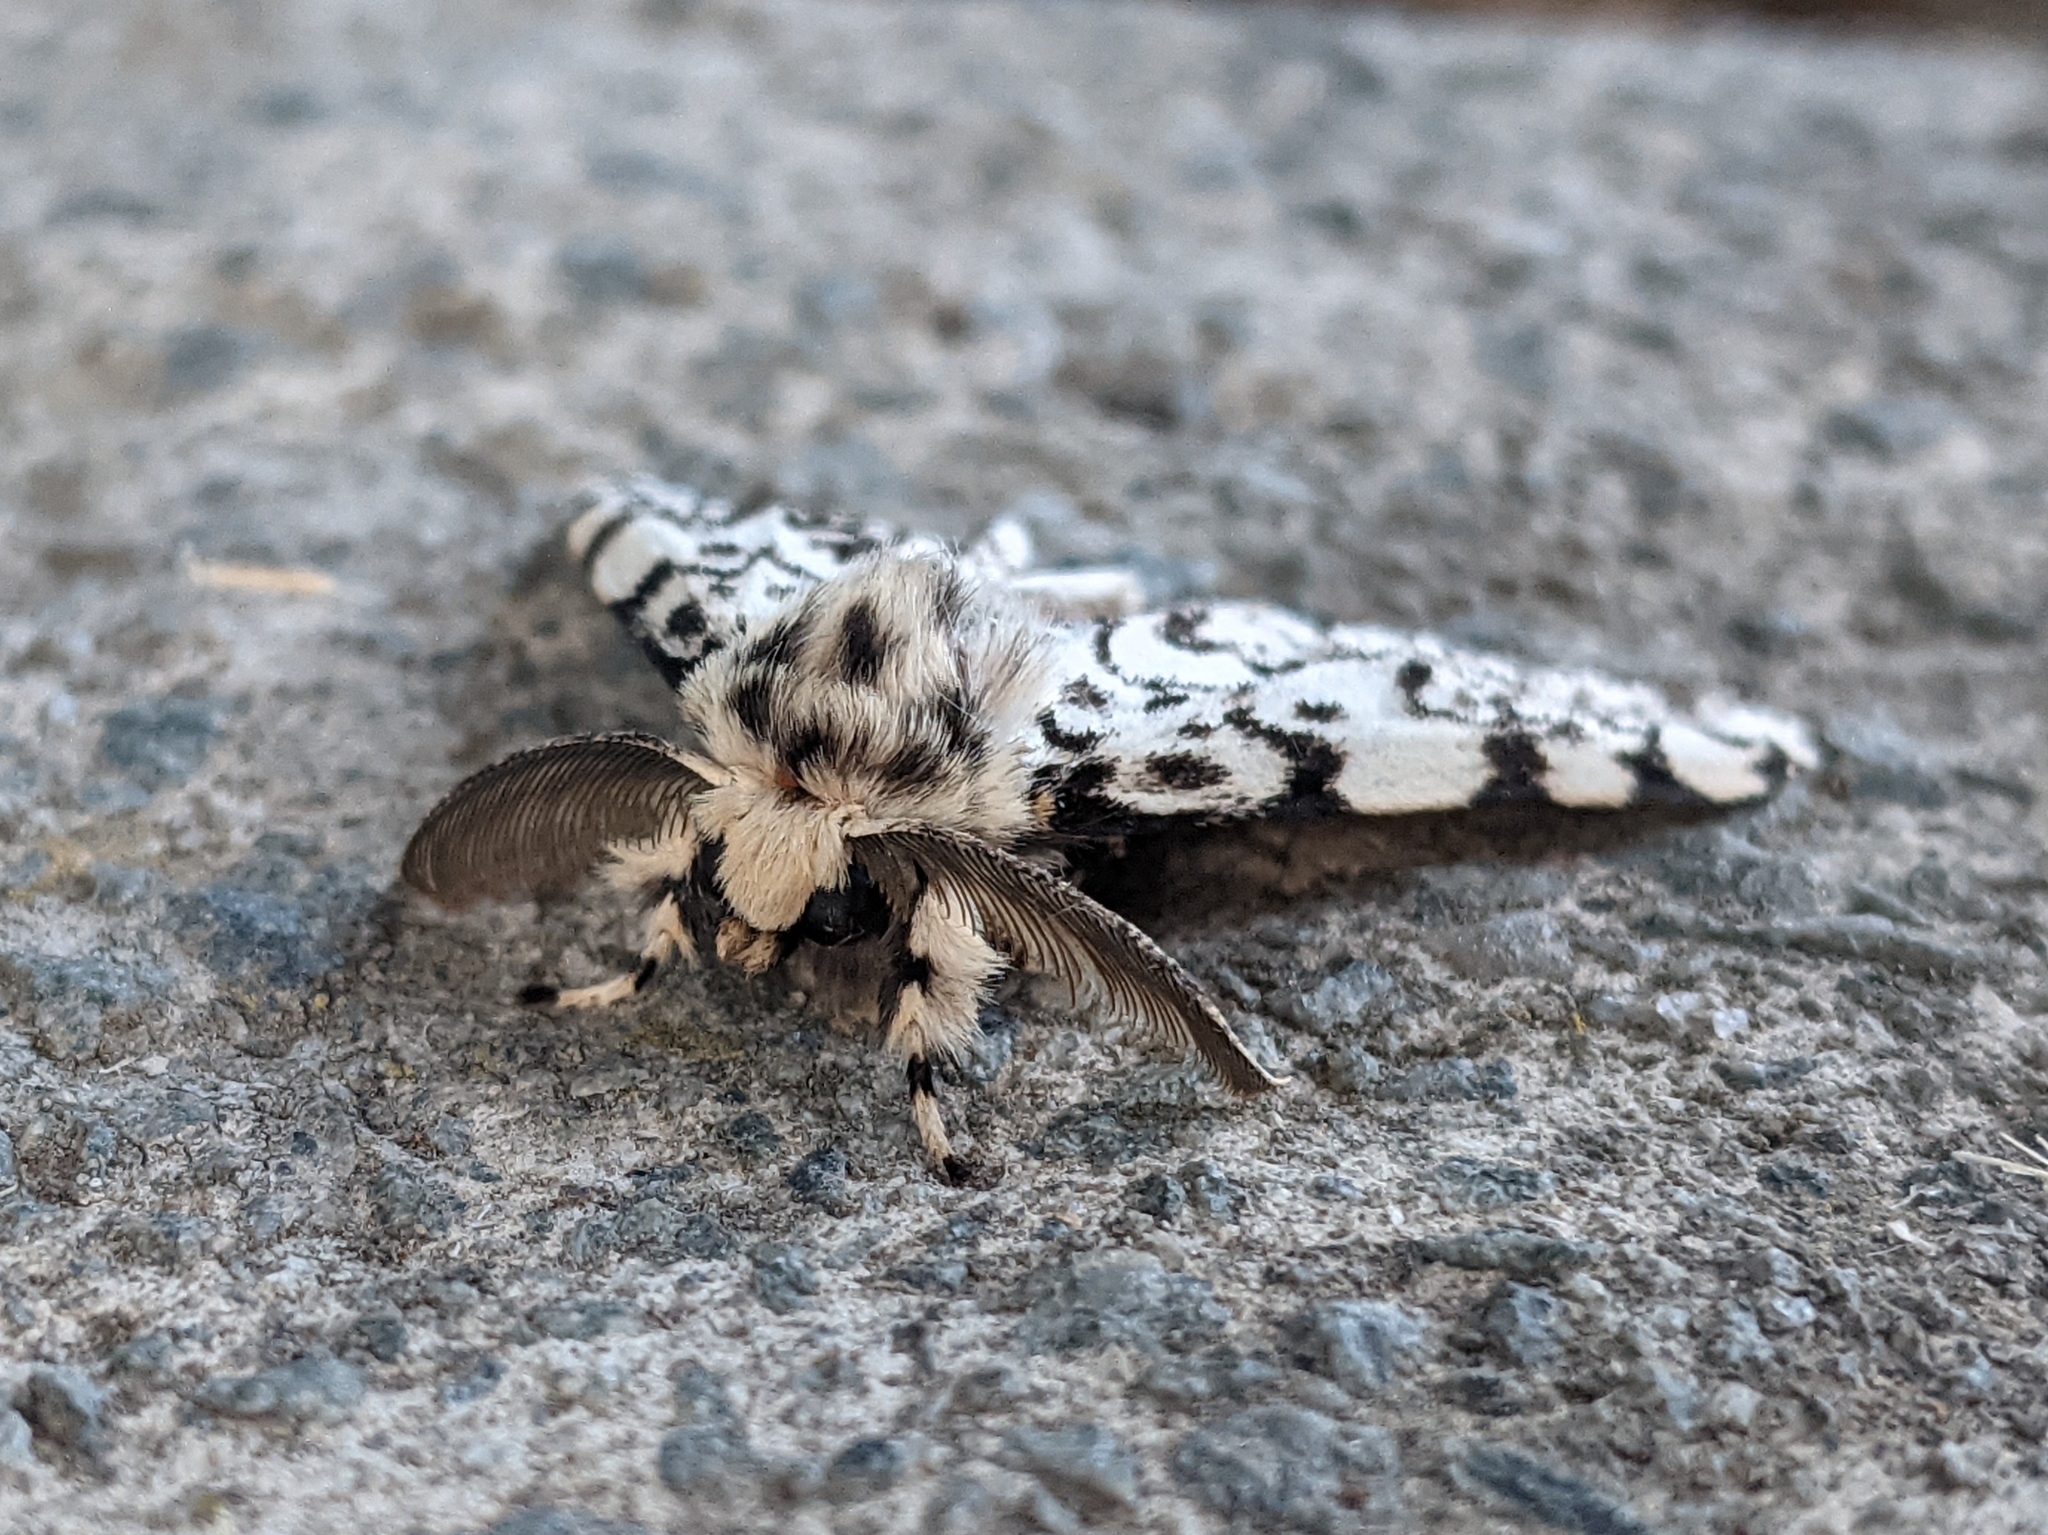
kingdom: Animalia
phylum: Arthropoda
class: Insecta
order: Lepidoptera
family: Erebidae
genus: Lymantria
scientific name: Lymantria monacha
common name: Black arches
